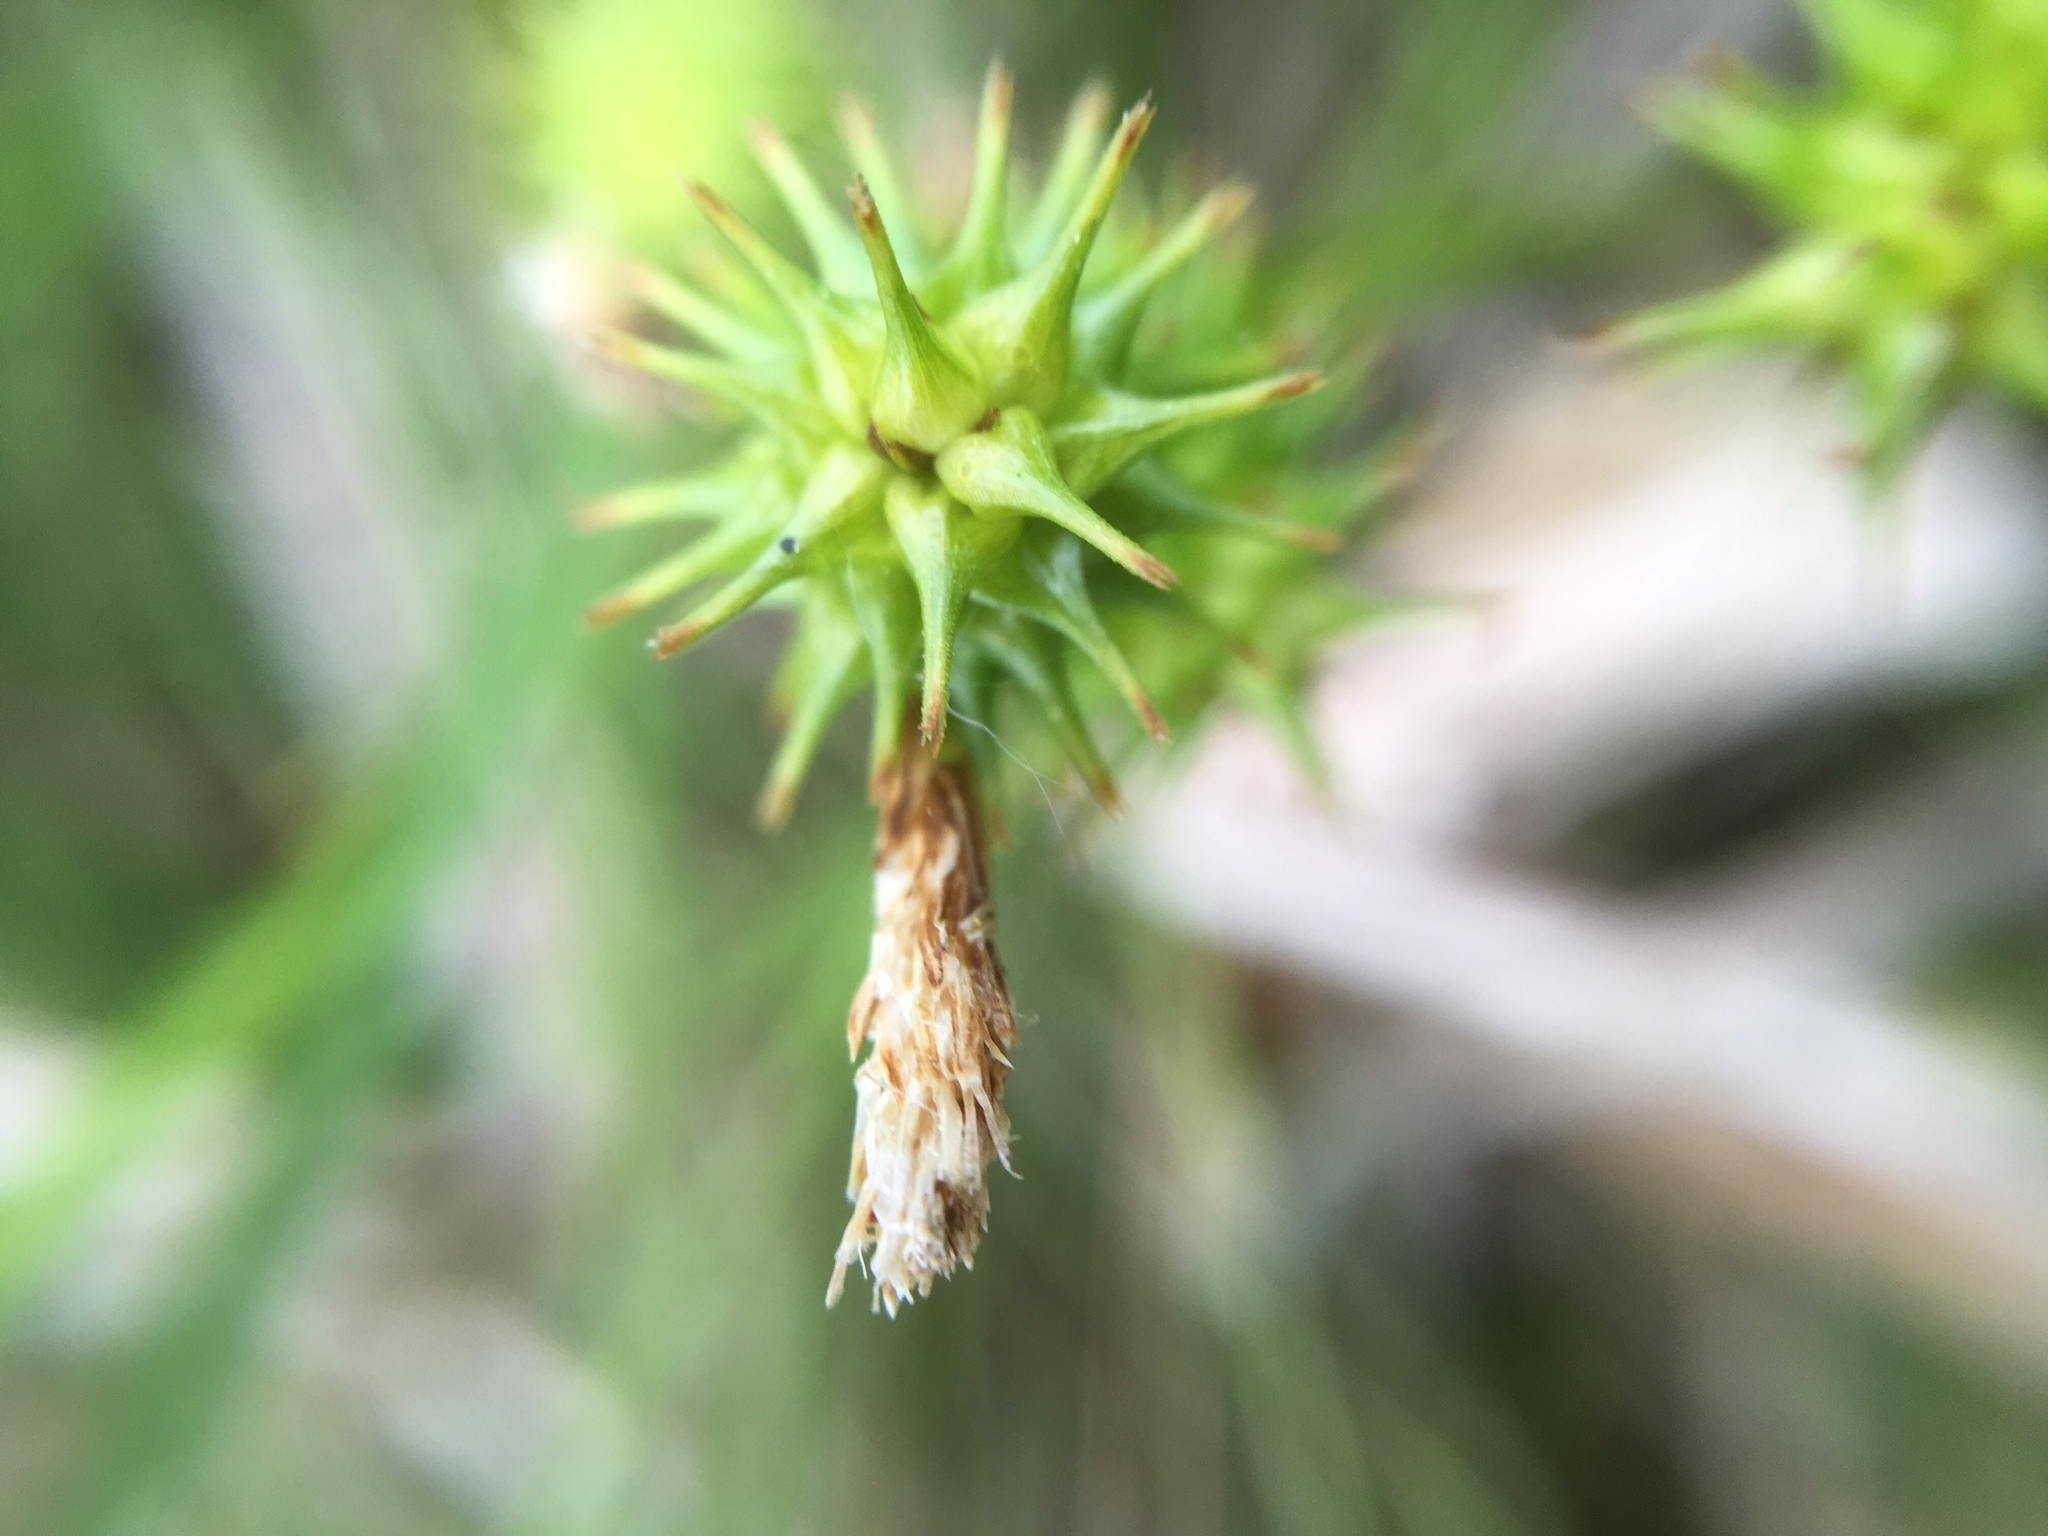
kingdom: Plantae
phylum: Tracheophyta
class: Liliopsida
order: Poales
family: Cyperaceae
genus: Carex
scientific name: Carex flava
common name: Large yellow-sedge
